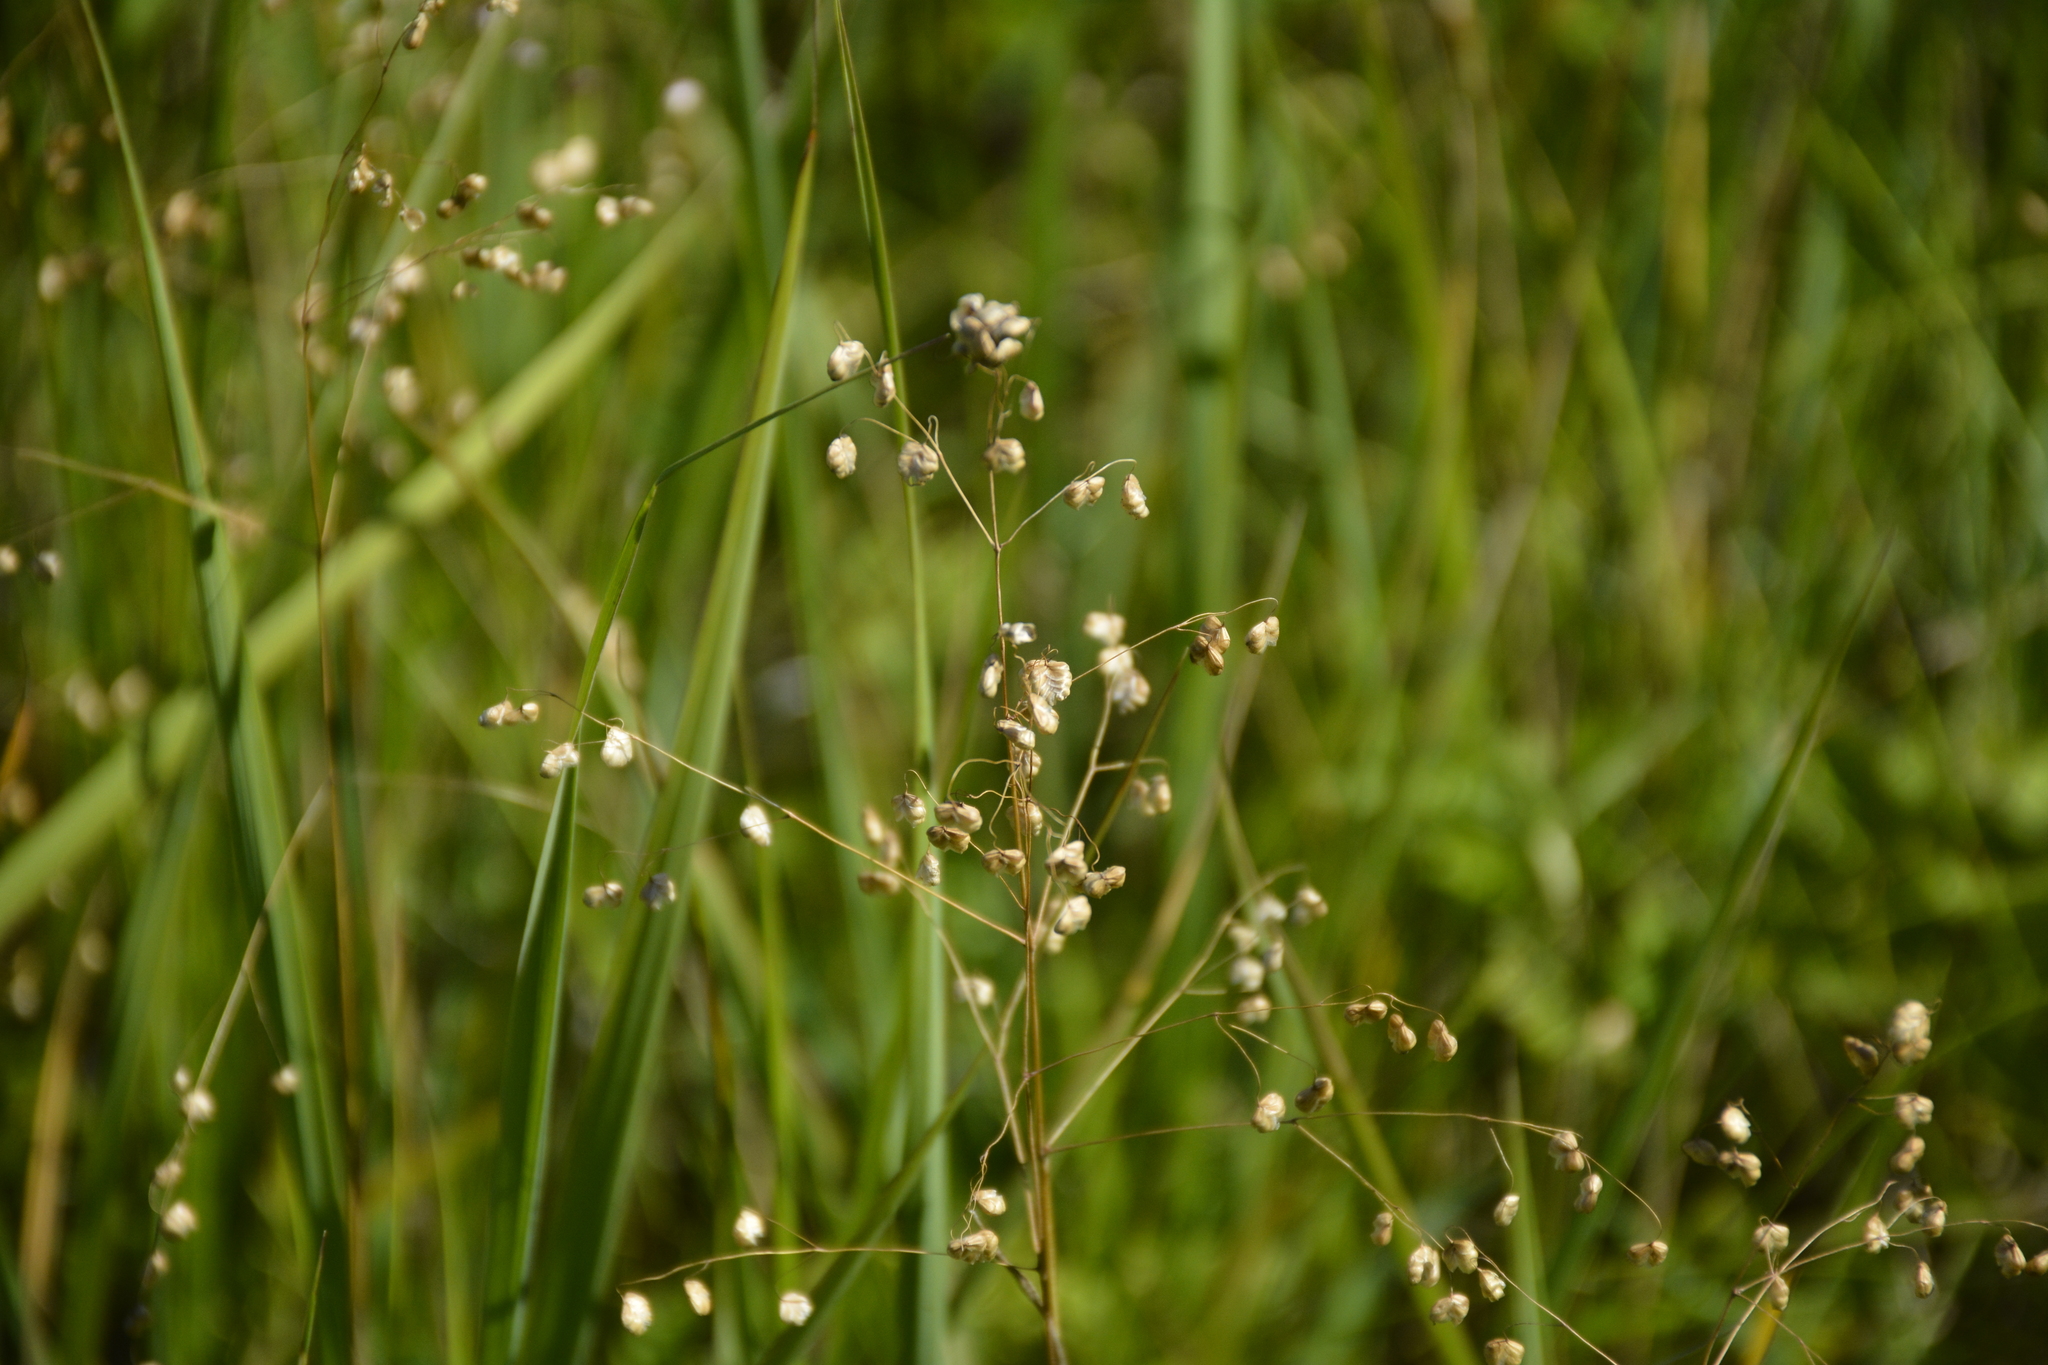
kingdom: Plantae
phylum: Tracheophyta
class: Liliopsida
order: Poales
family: Poaceae
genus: Briza
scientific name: Briza media
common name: Quaking grass
